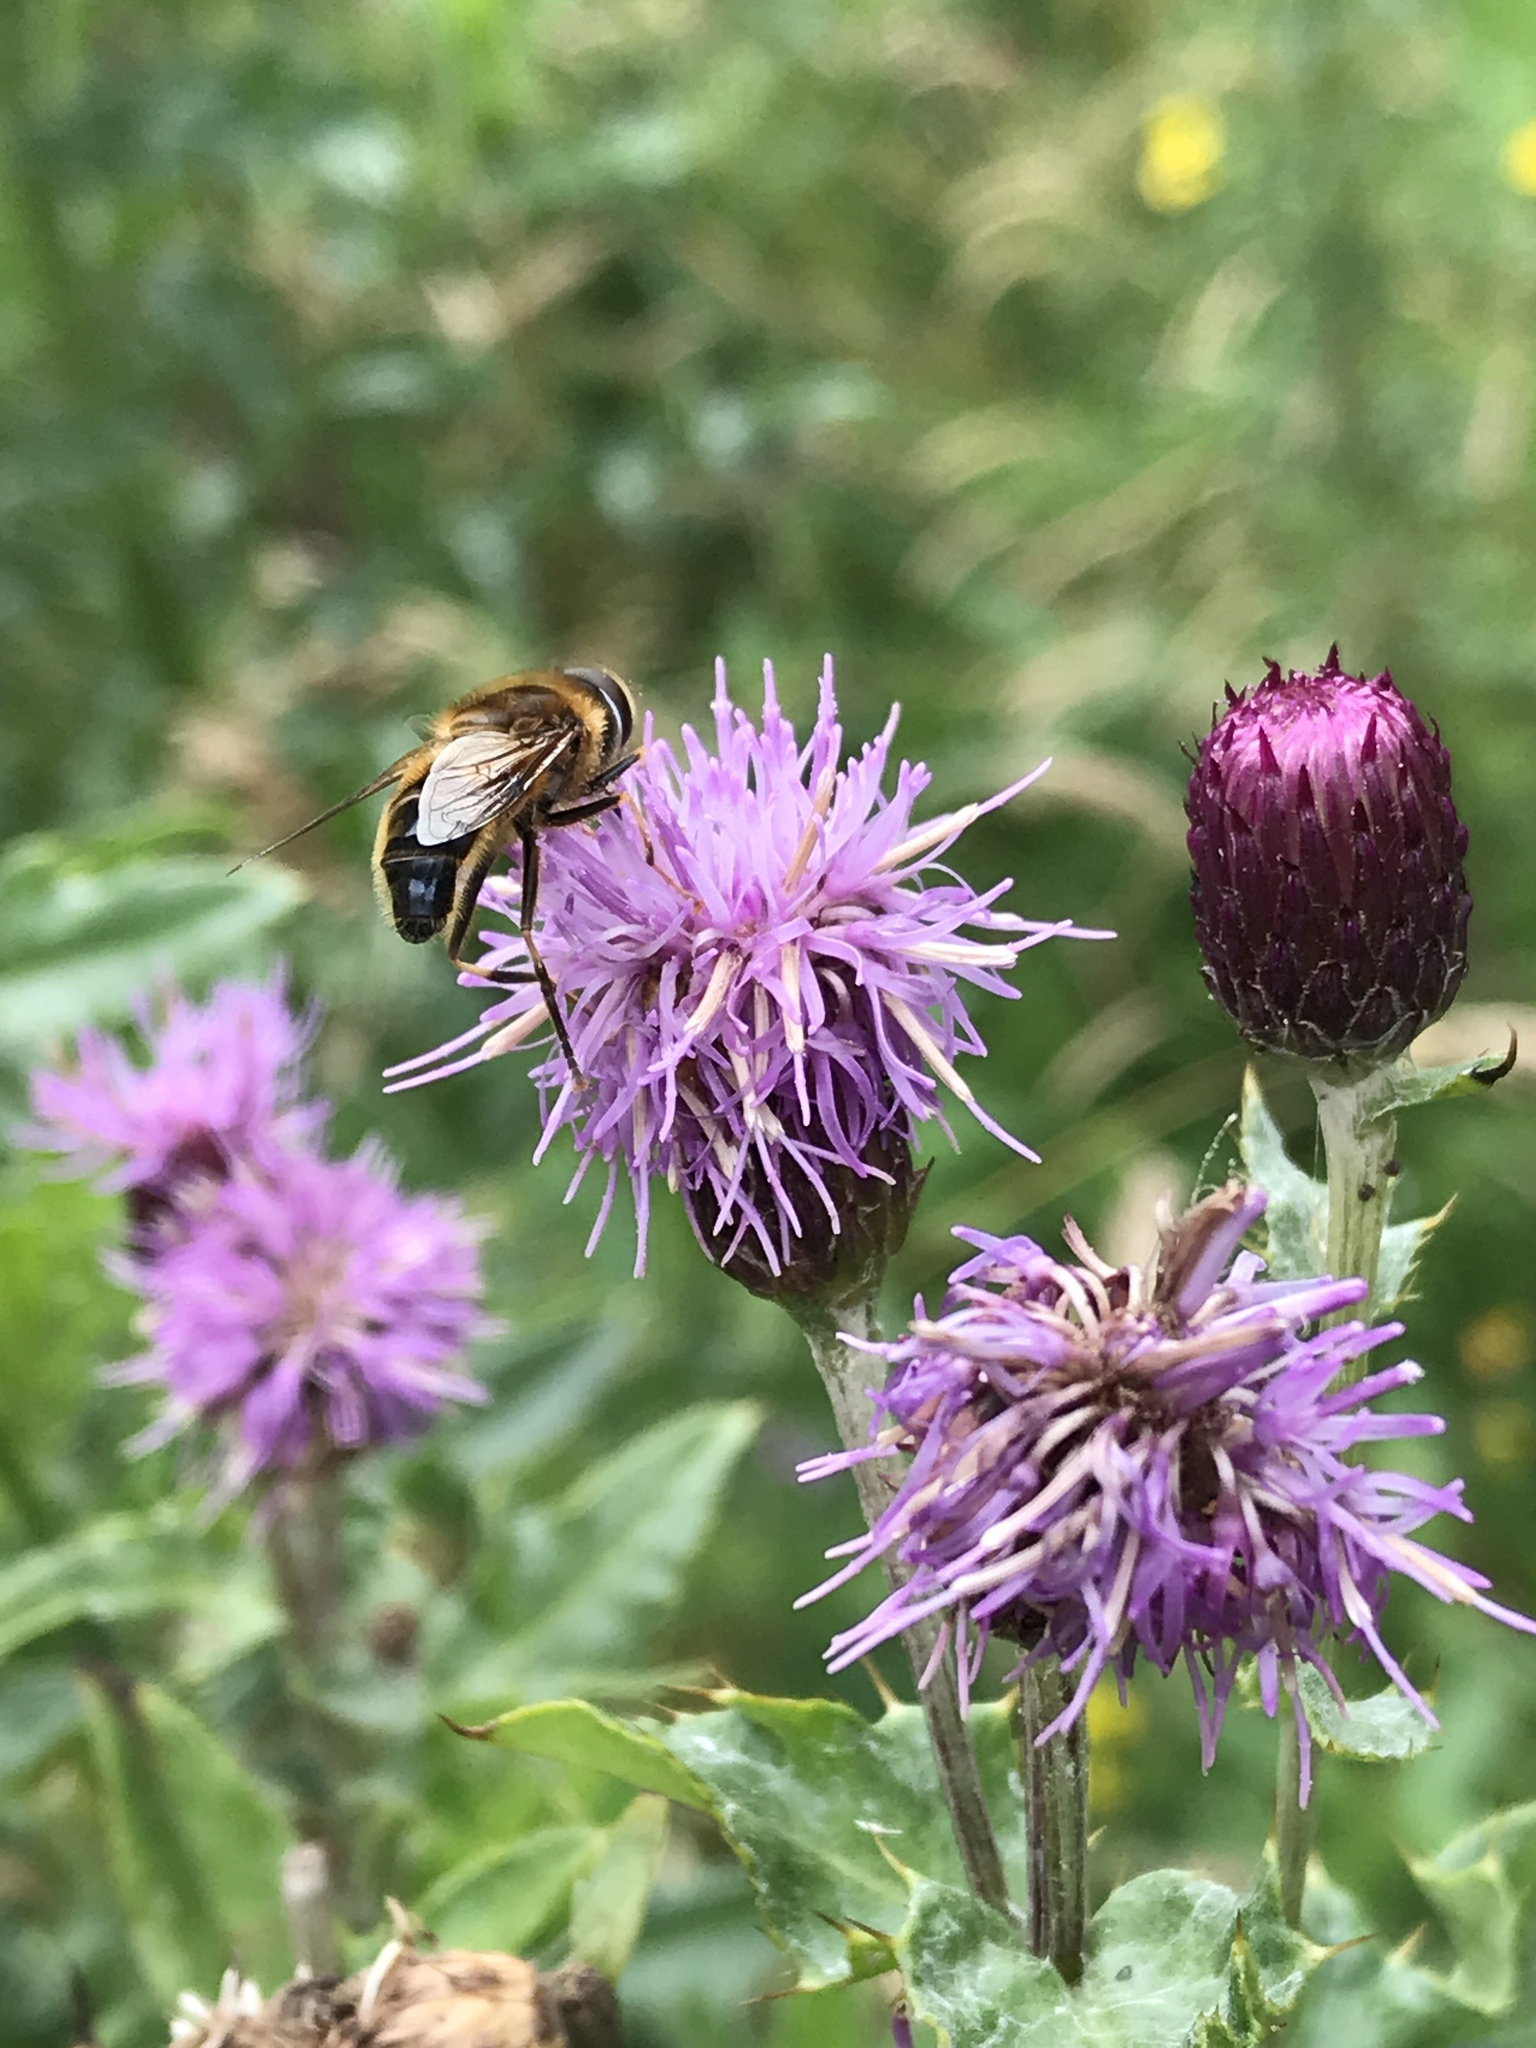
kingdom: Animalia
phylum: Arthropoda
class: Insecta
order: Diptera
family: Syrphidae
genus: Eristalis
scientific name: Eristalis pertinax
